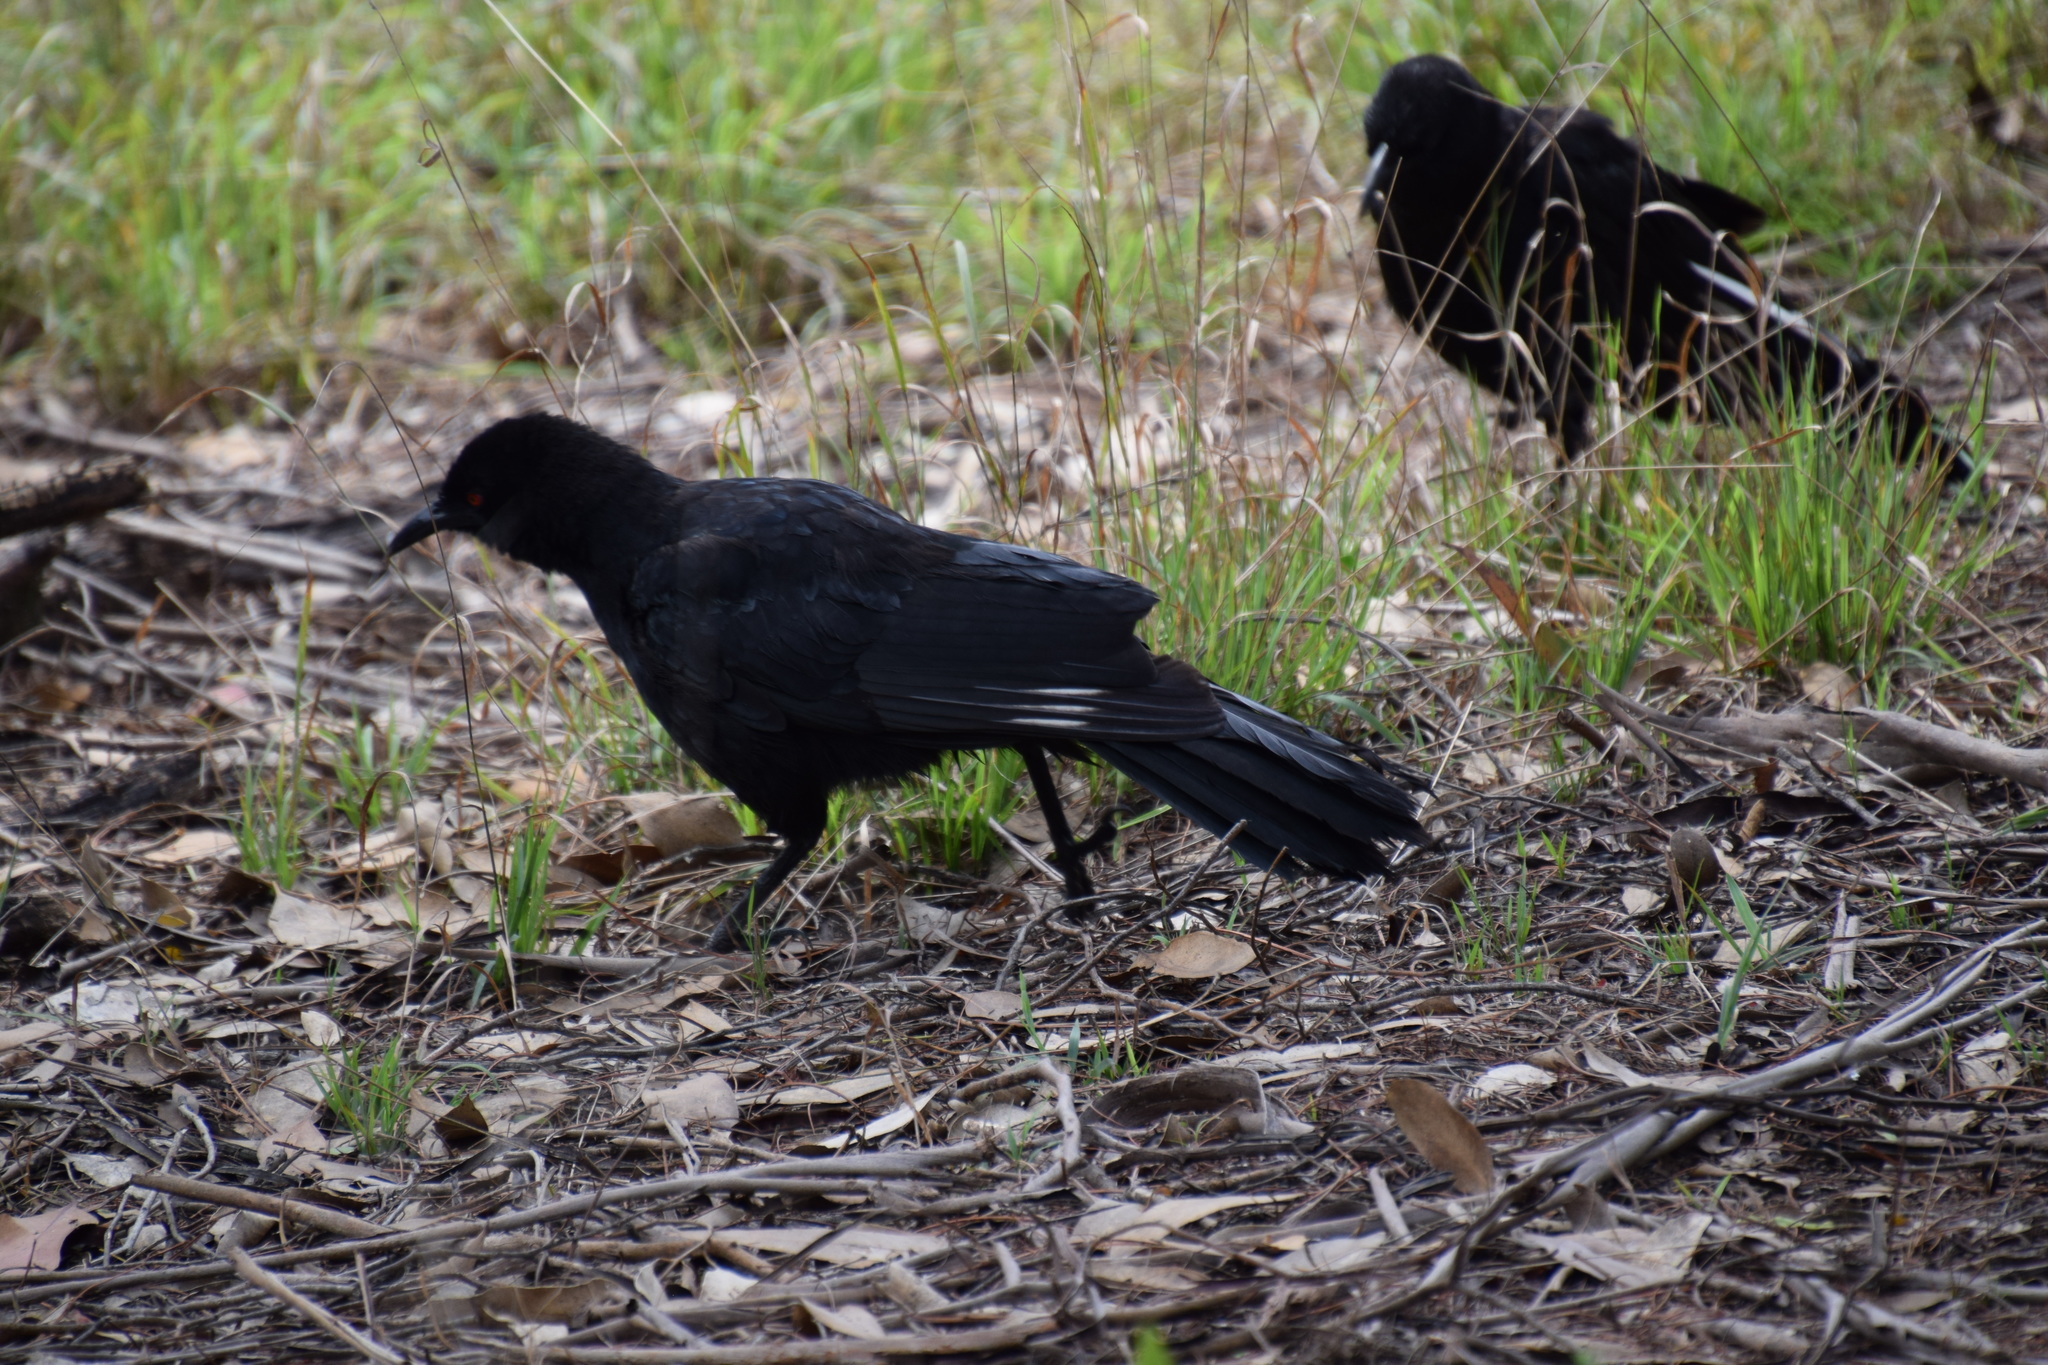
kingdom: Animalia
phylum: Chordata
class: Aves
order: Passeriformes
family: Corcoracidae
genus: Corcorax
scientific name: Corcorax melanoramphos
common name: White-winged chough
